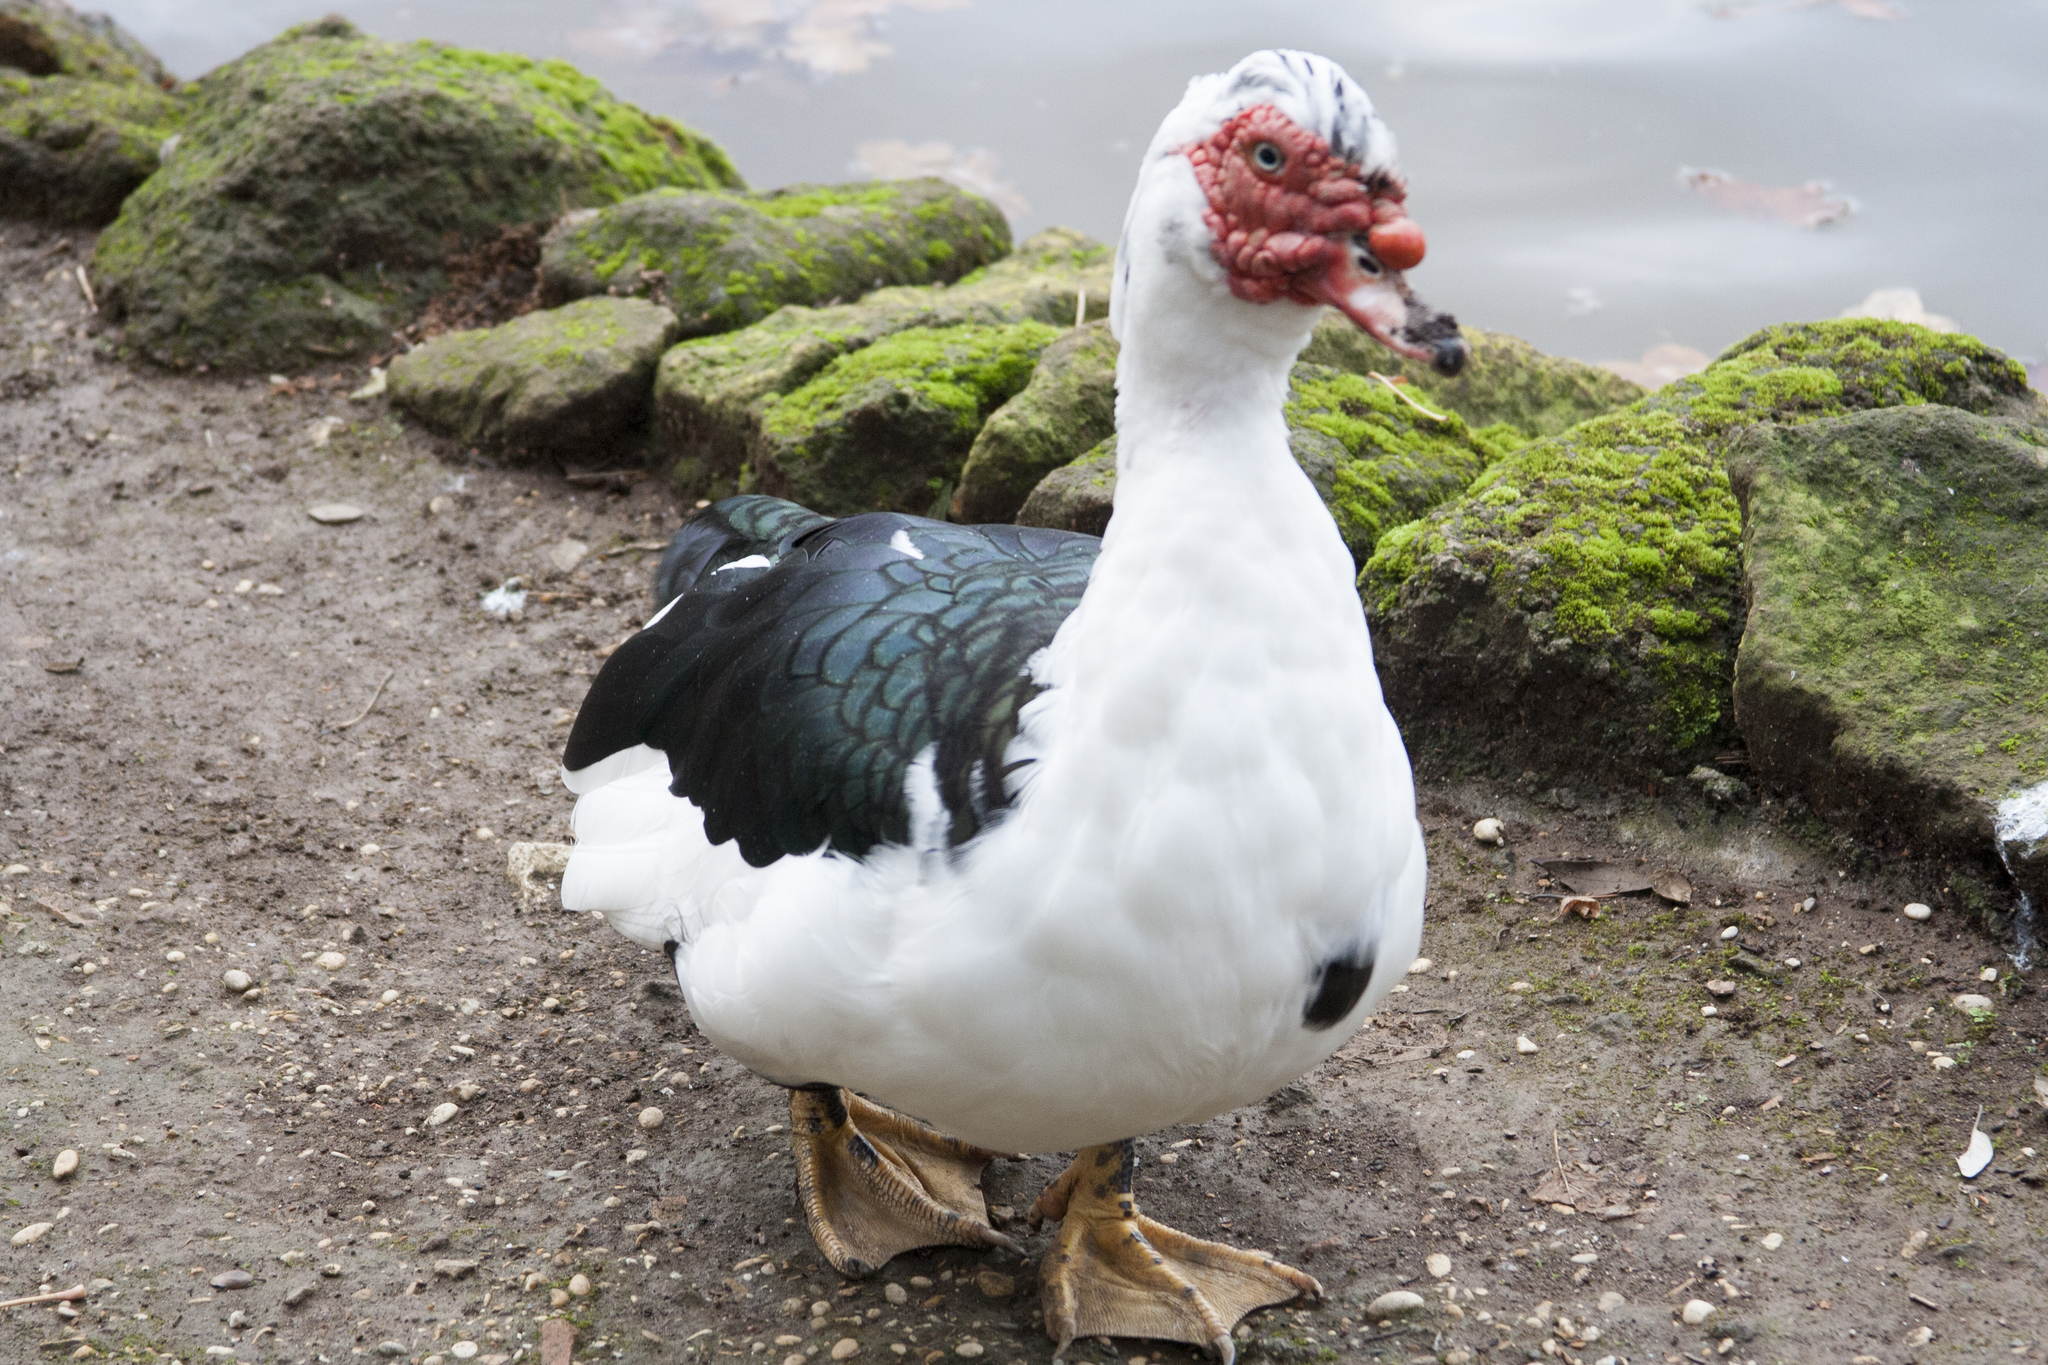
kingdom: Animalia
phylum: Chordata
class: Aves
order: Anseriformes
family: Anatidae
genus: Cairina
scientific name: Cairina moschata
